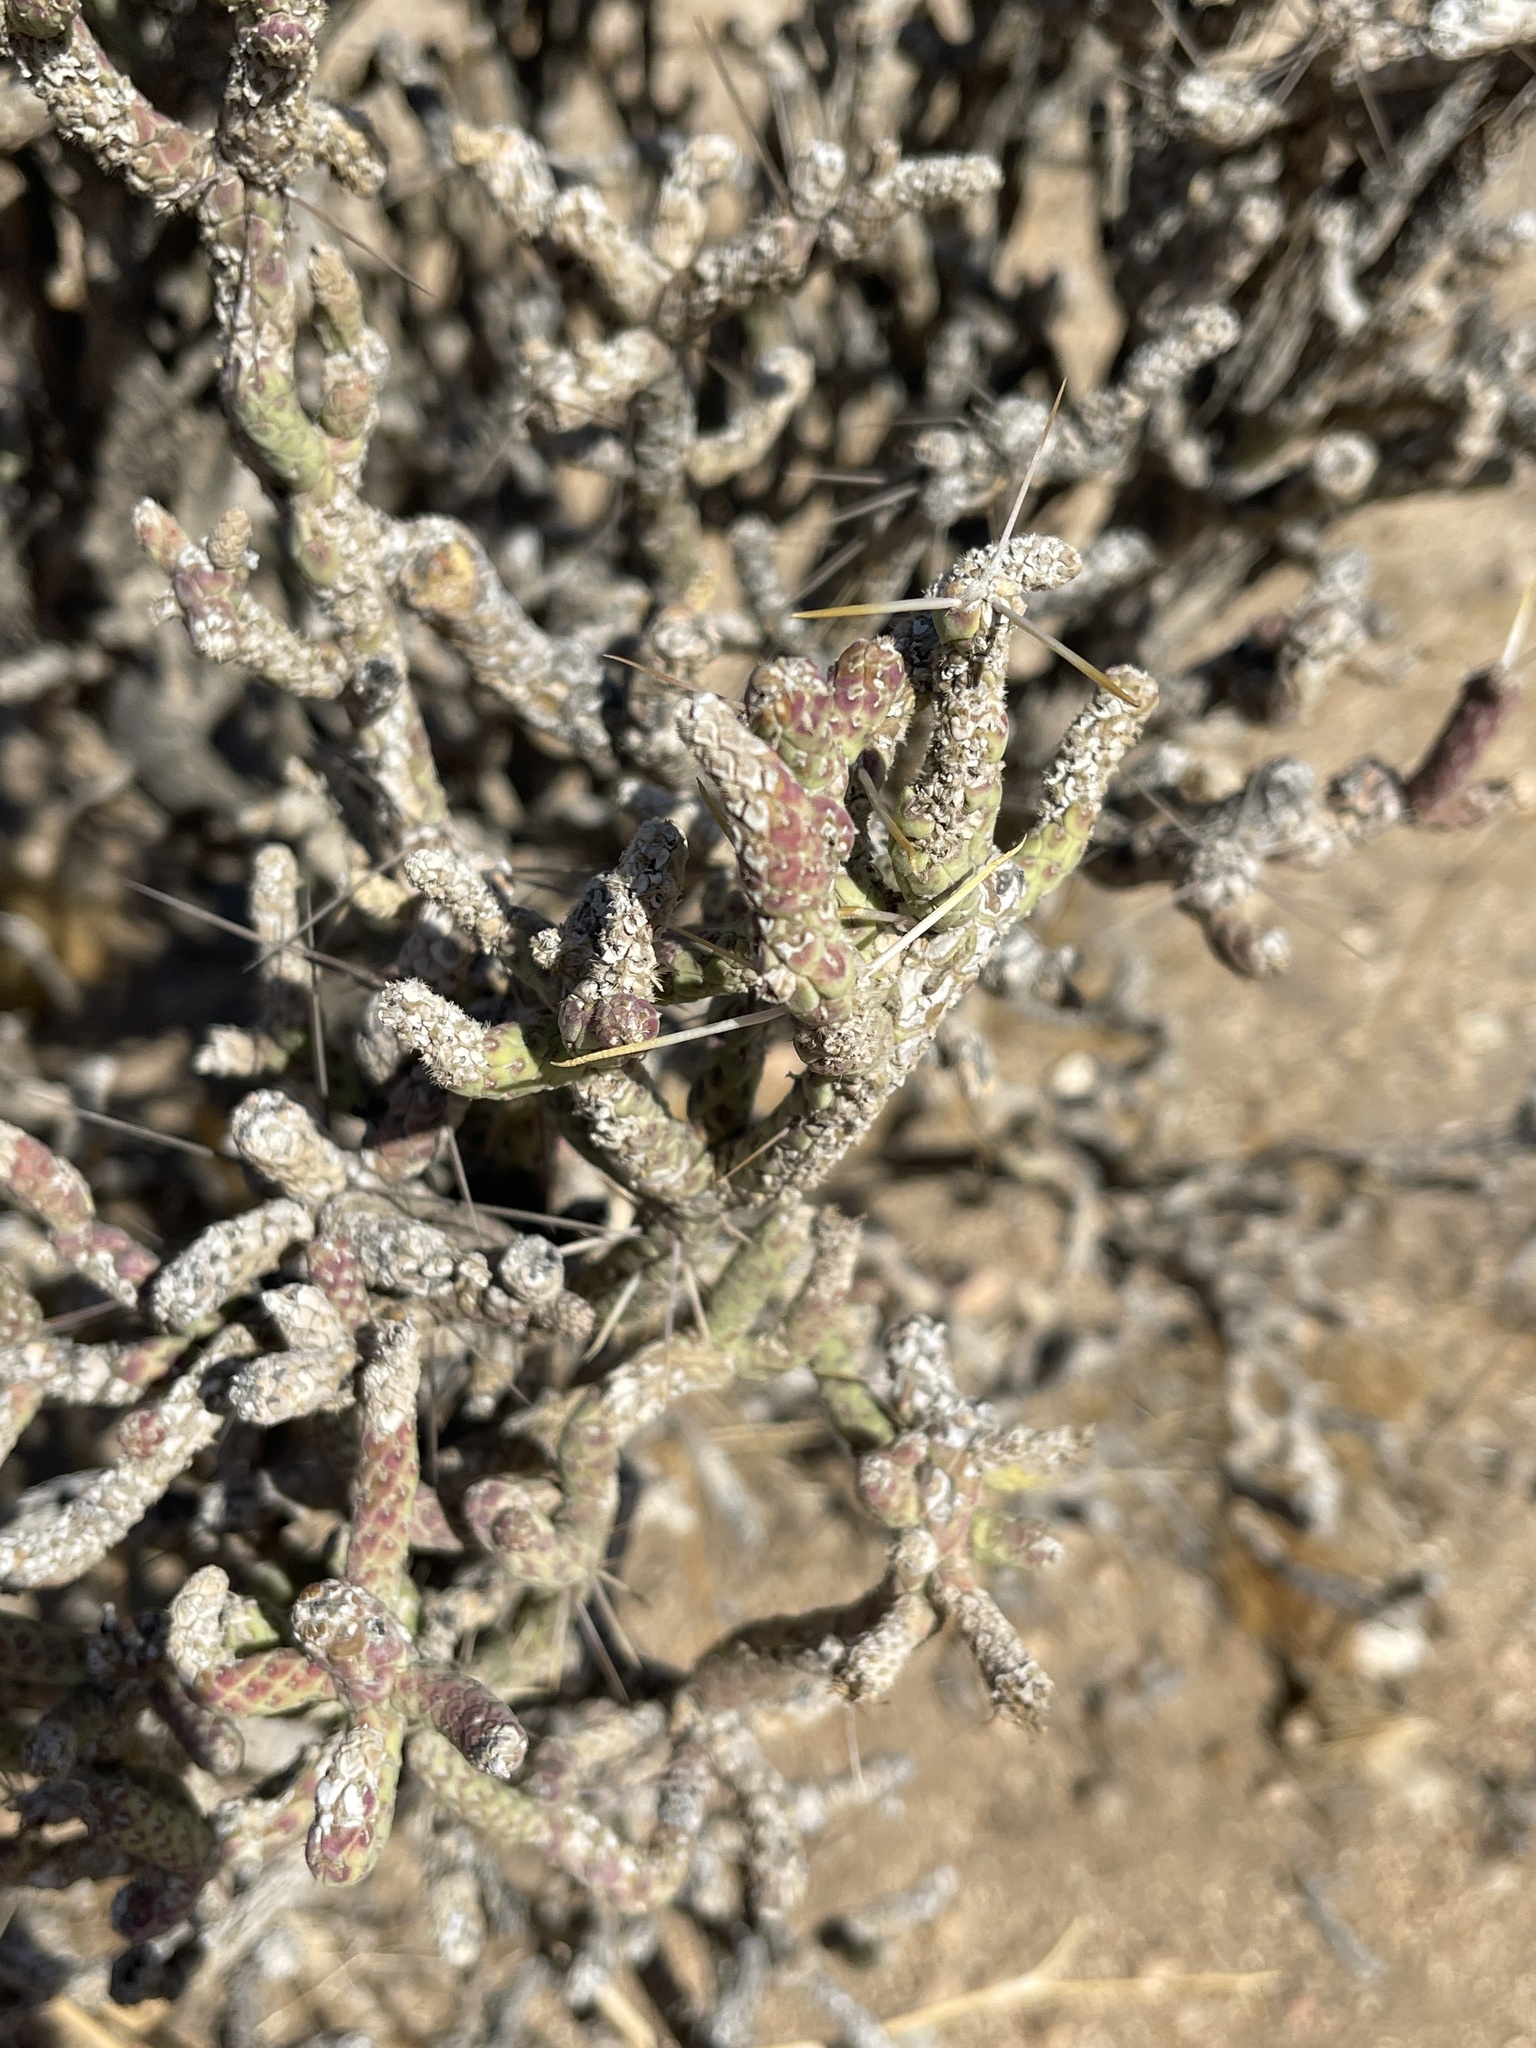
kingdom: Plantae
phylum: Tracheophyta
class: Magnoliopsida
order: Caryophyllales
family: Cactaceae
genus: Cylindropuntia
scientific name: Cylindropuntia ramosissima
